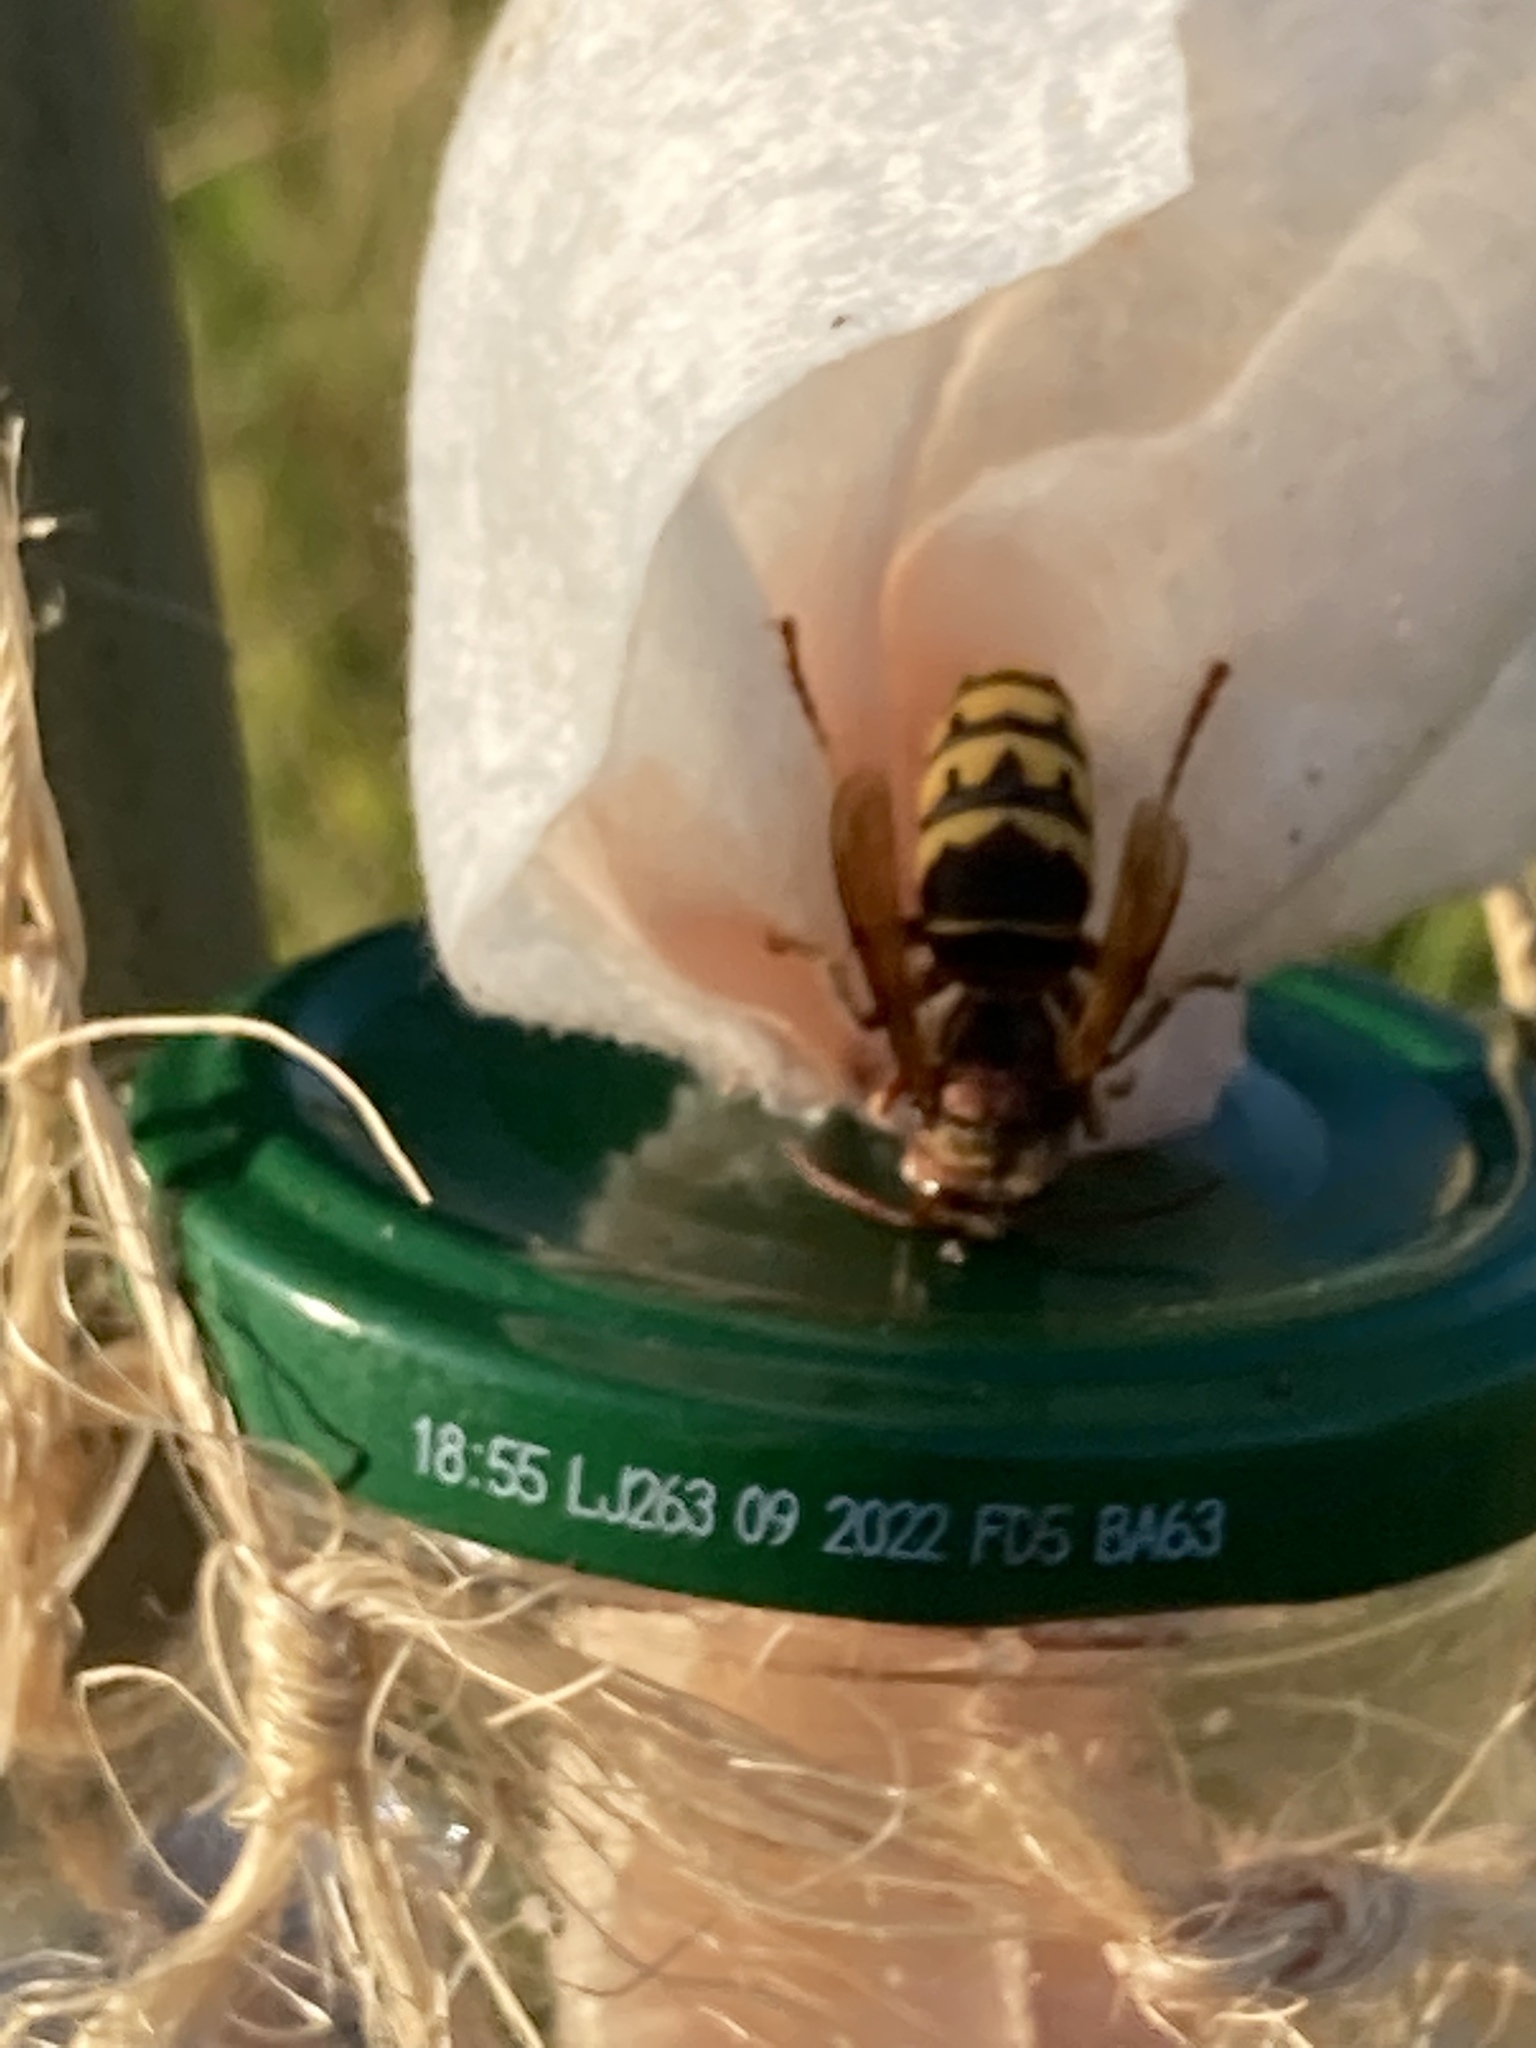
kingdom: Animalia
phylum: Arthropoda
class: Insecta
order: Hymenoptera
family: Vespidae
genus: Vespa
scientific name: Vespa crabro
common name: Hornet
